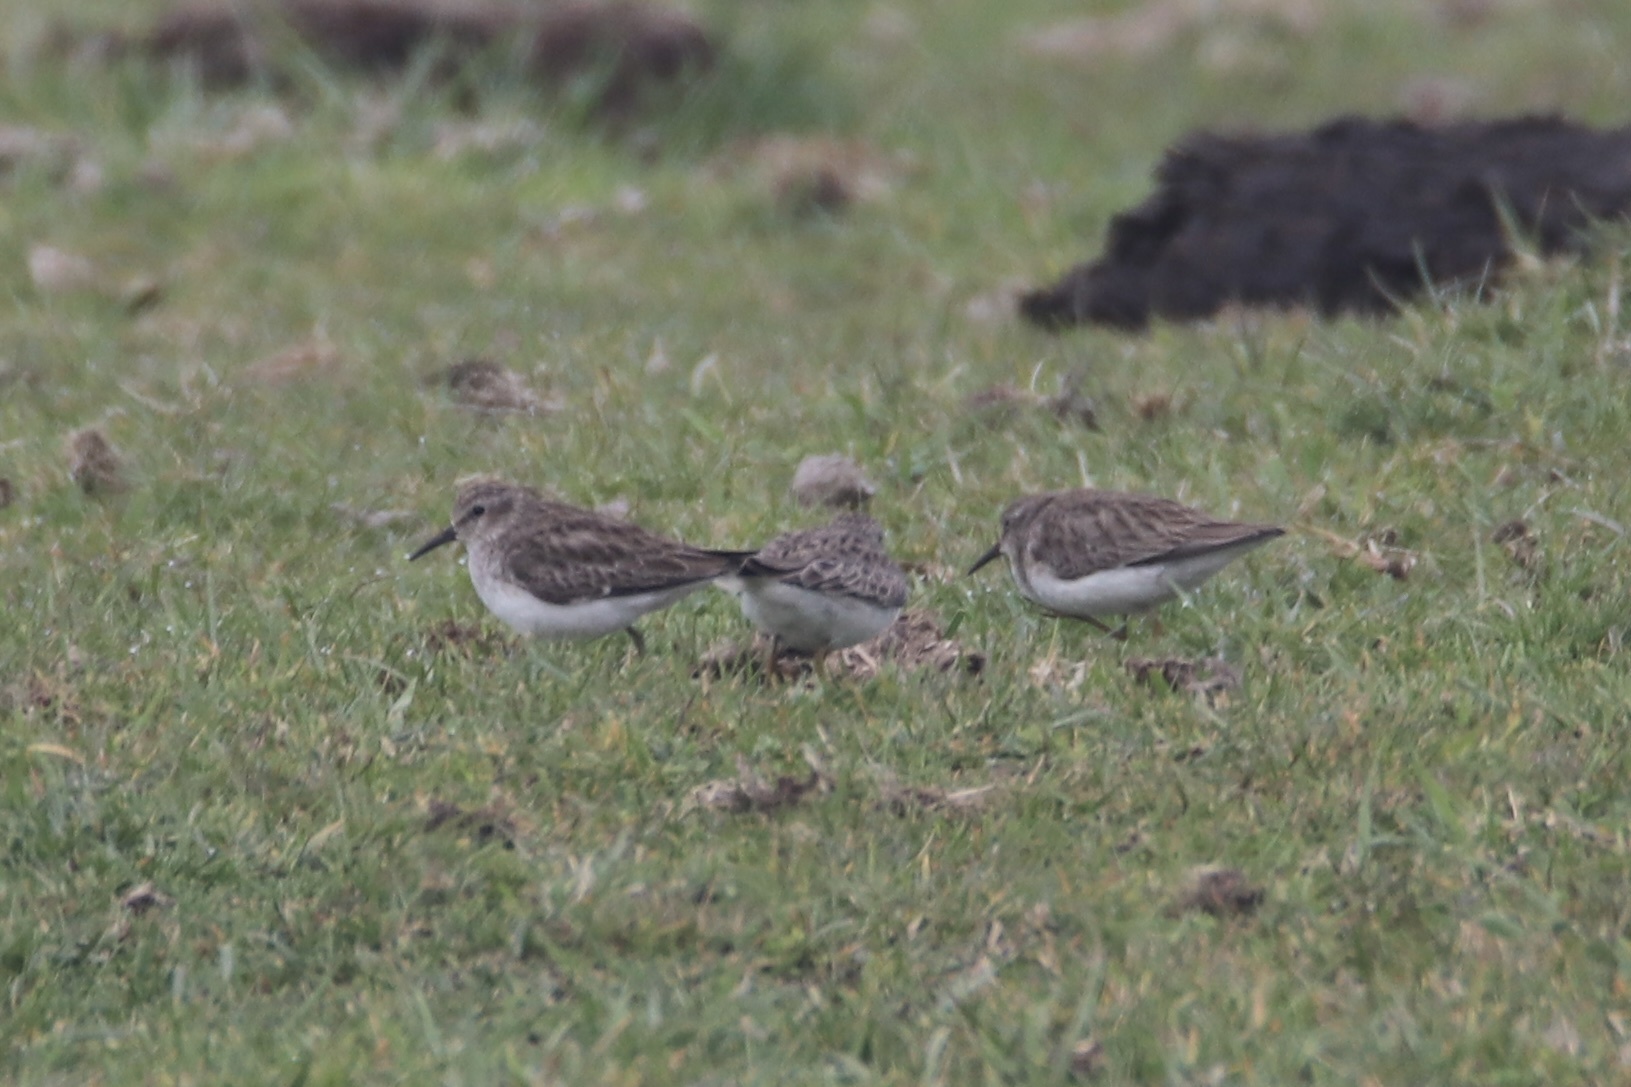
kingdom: Animalia
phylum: Chordata
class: Aves
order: Charadriiformes
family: Scolopacidae
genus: Calidris
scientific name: Calidris minutilla
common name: Least sandpiper
